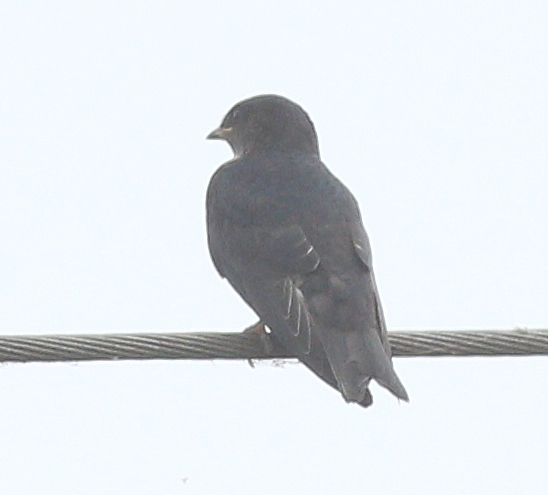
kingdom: Animalia
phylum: Chordata
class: Aves
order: Passeriformes
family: Hirundinidae
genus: Progne
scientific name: Progne chalybea
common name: Grey-breasted martin
